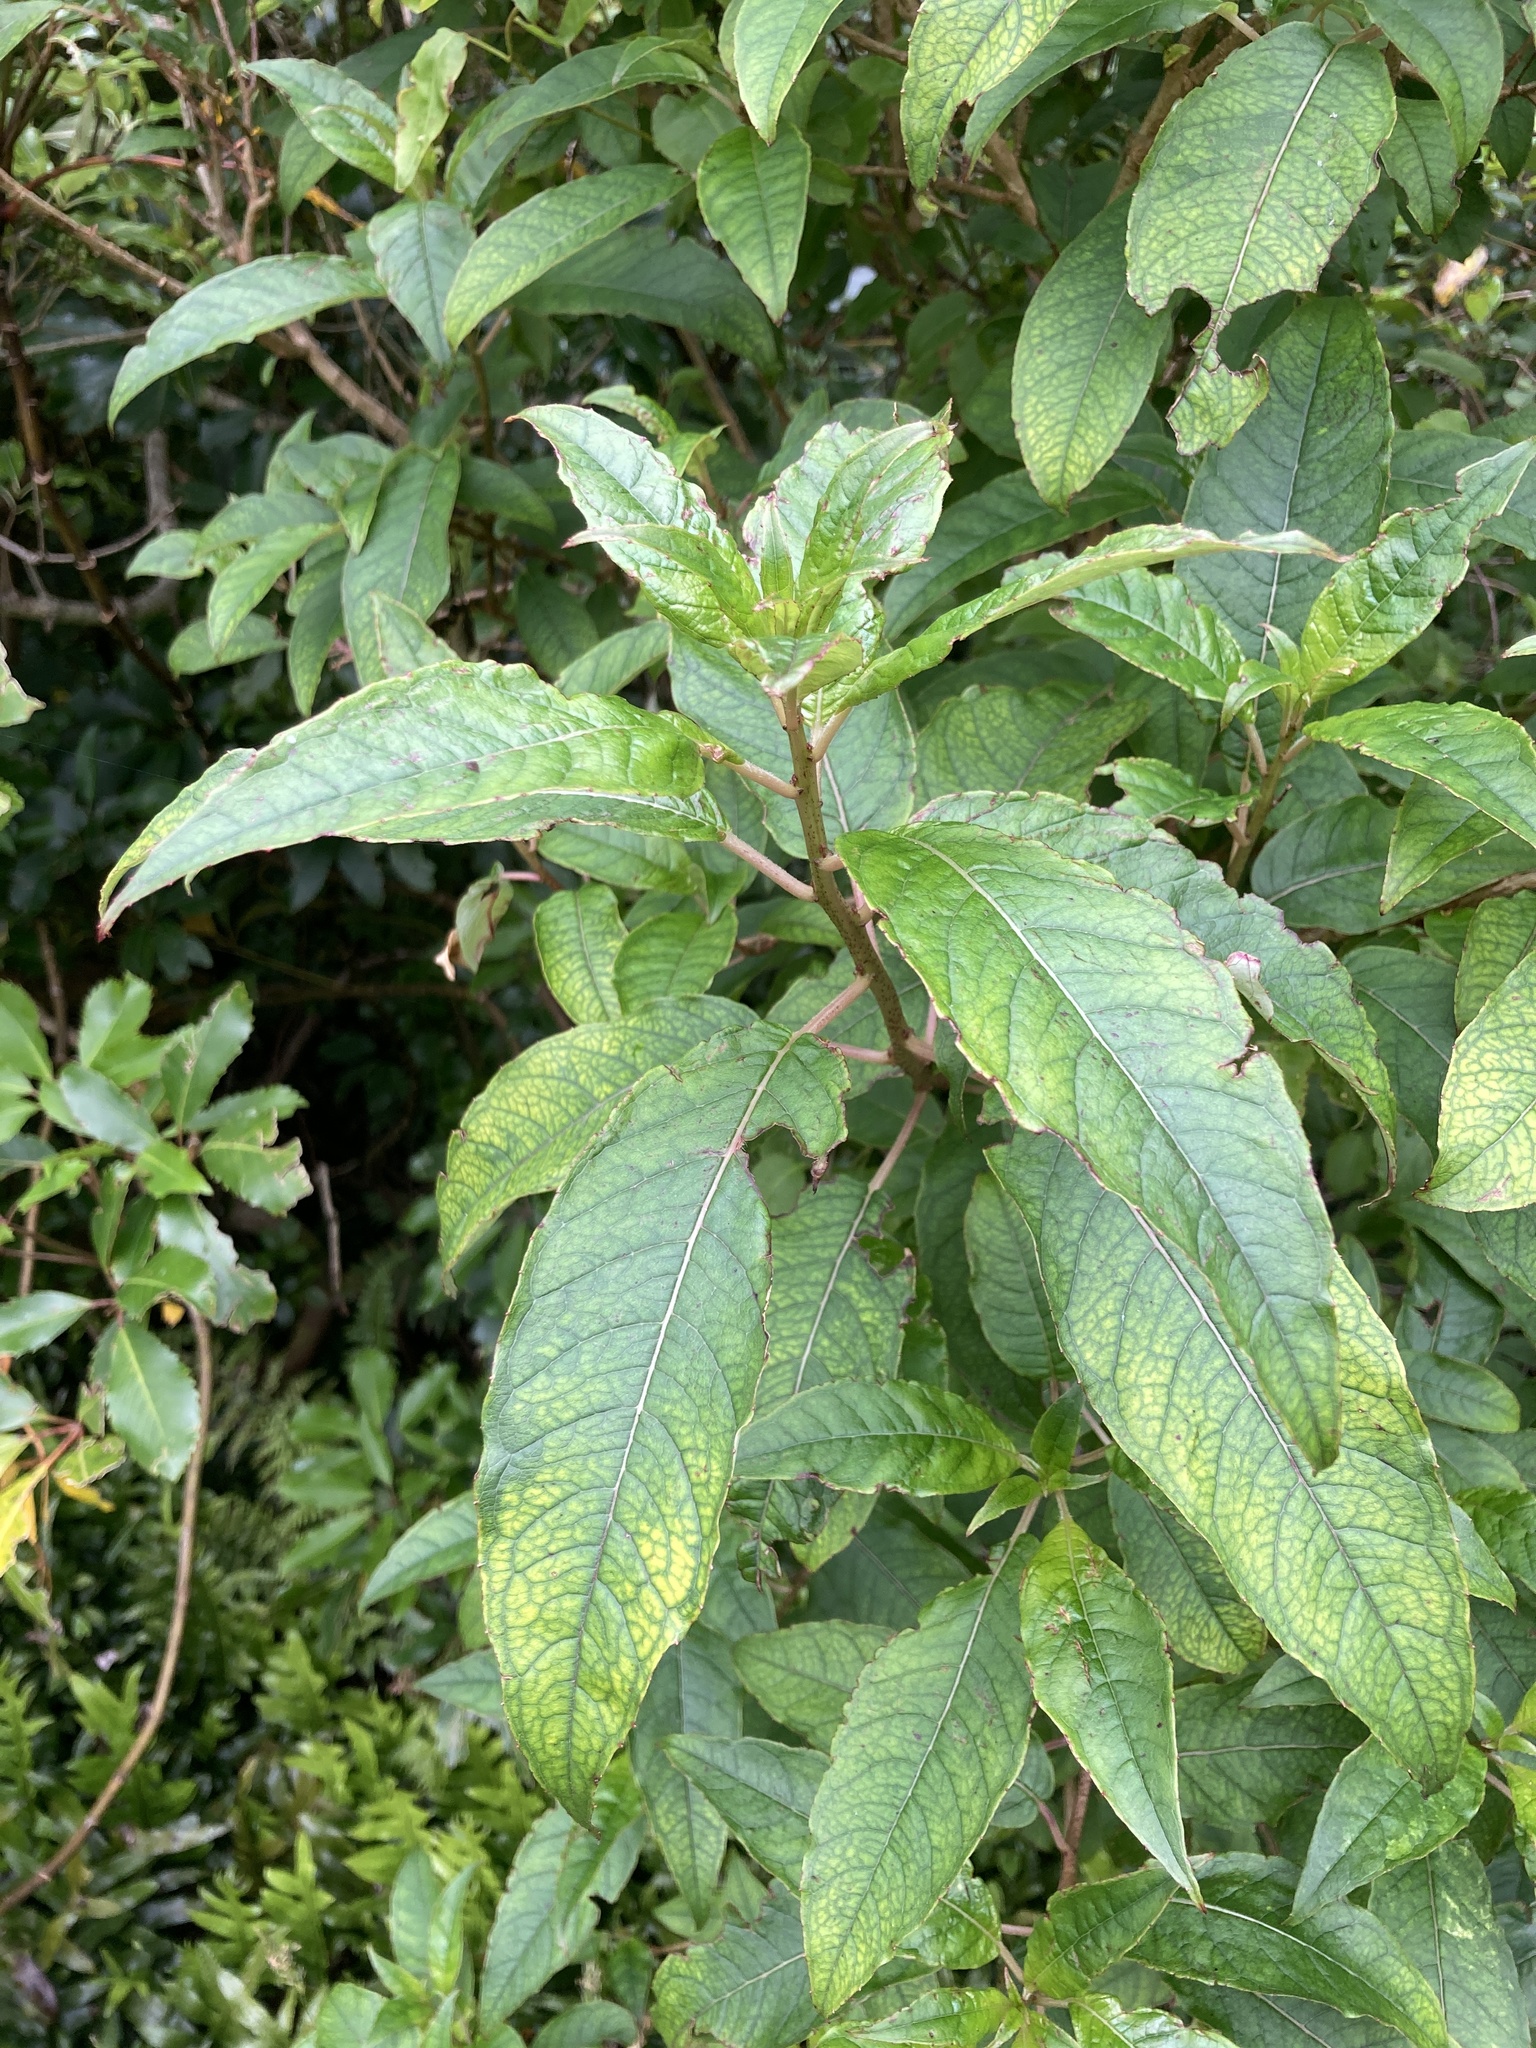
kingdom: Plantae
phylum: Tracheophyta
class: Magnoliopsida
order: Myrtales
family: Onagraceae
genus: Fuchsia
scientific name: Fuchsia excorticata
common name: Tree fuchsia
